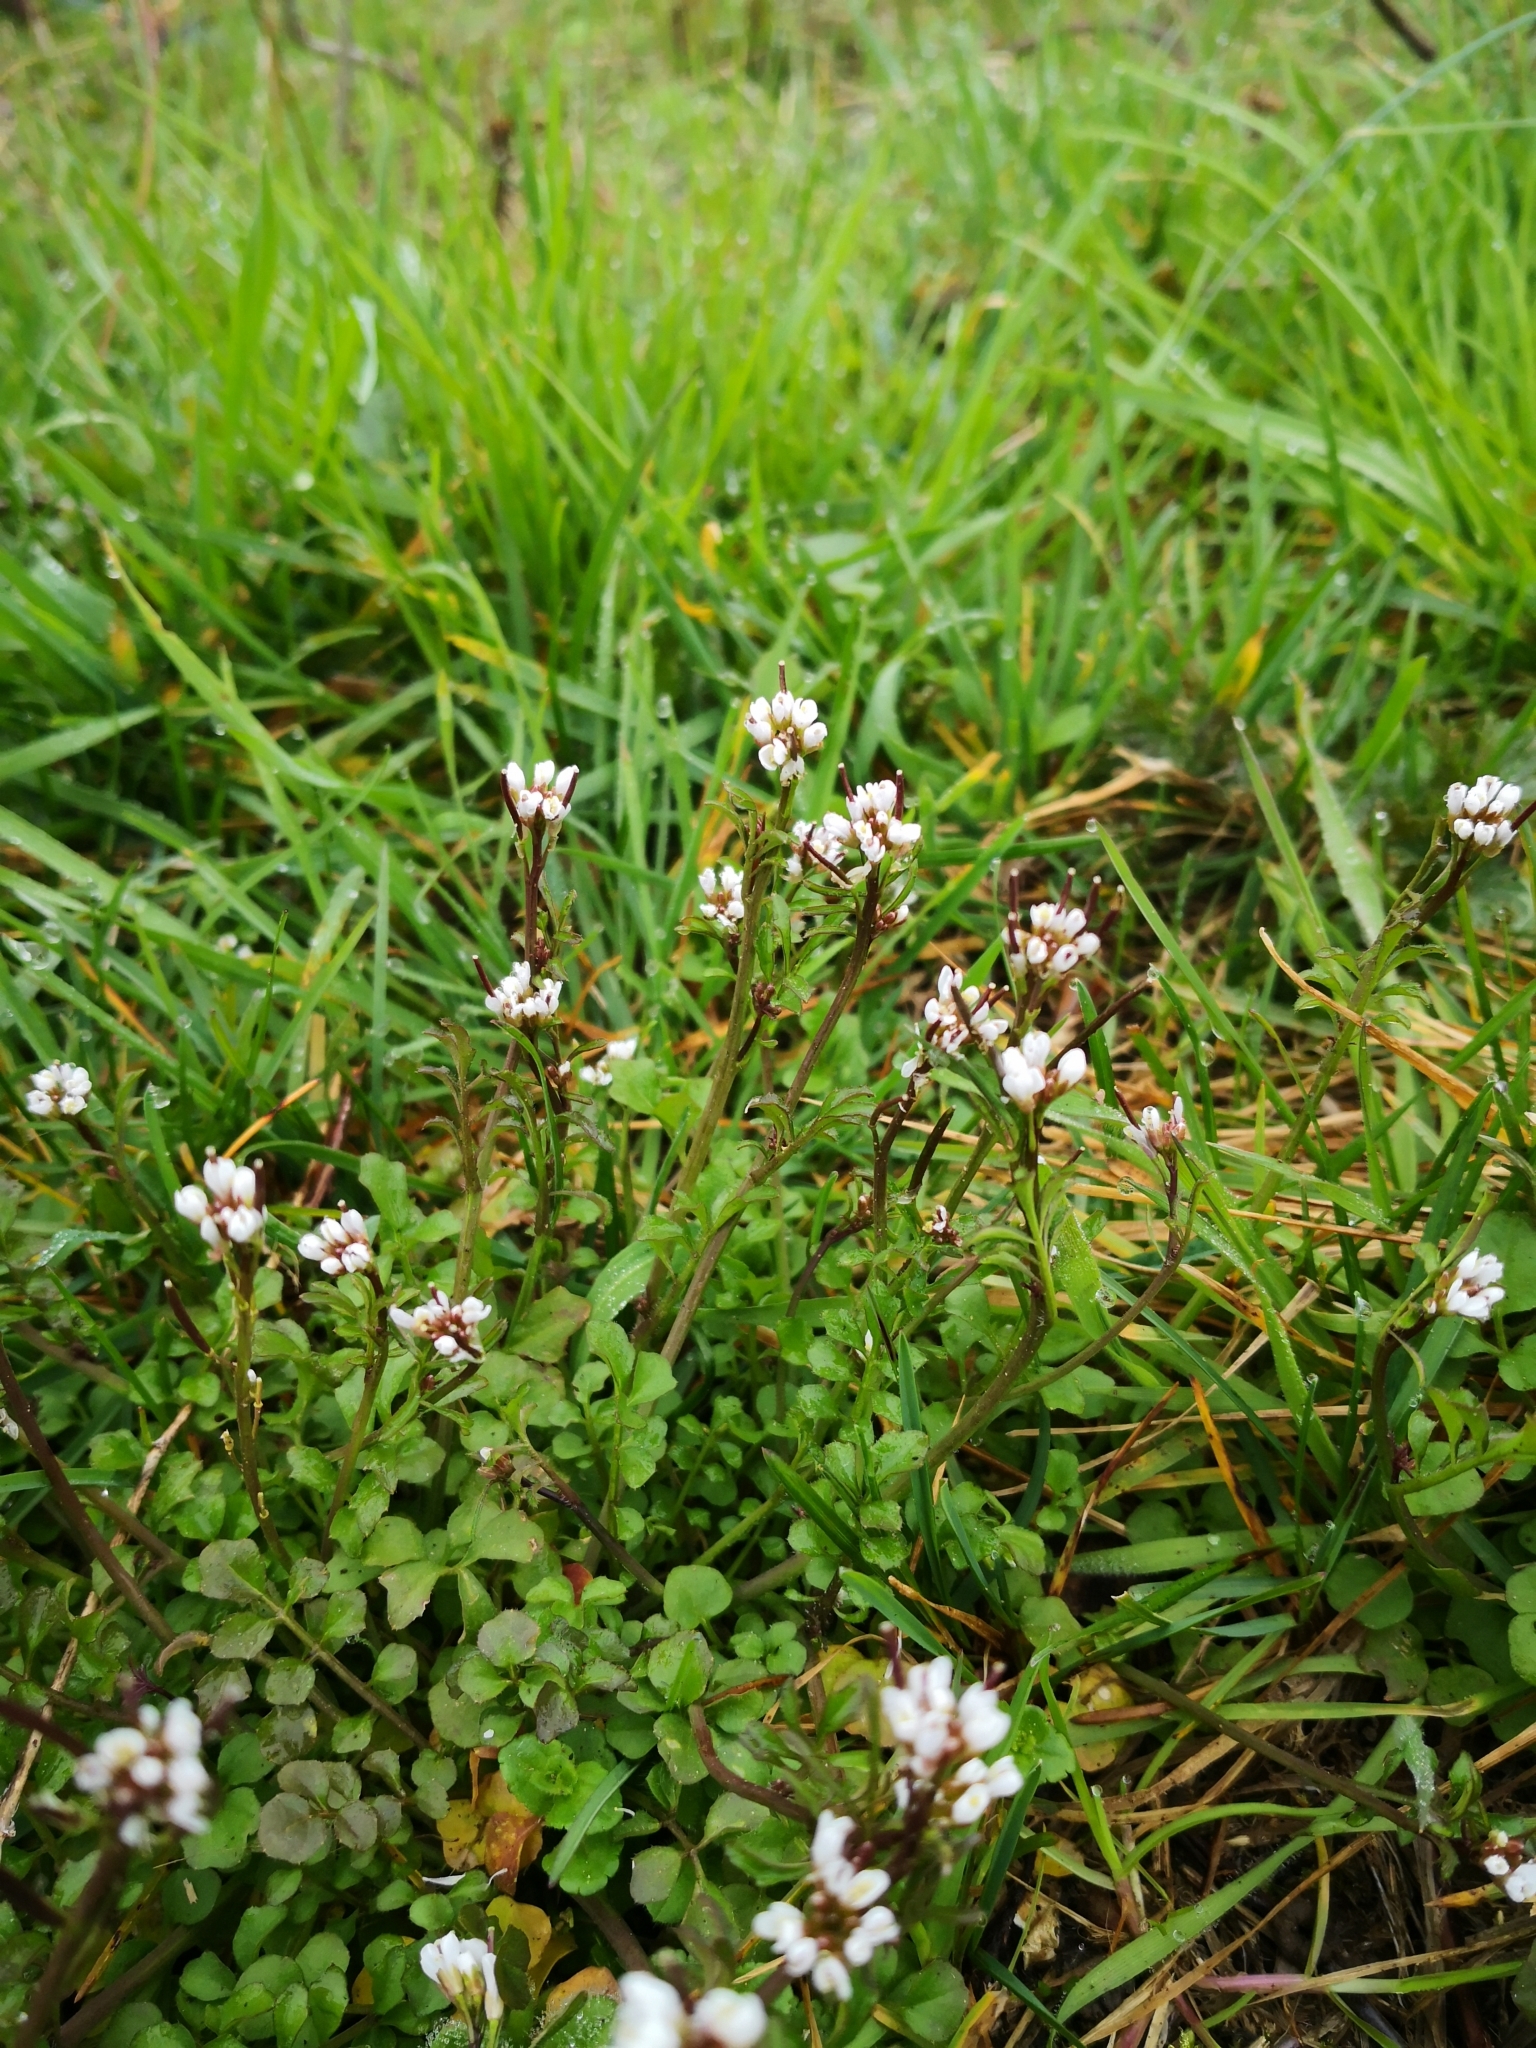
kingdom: Plantae
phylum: Tracheophyta
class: Magnoliopsida
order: Brassicales
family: Brassicaceae
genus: Cardamine
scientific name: Cardamine hirsuta
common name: Hairy bittercress
